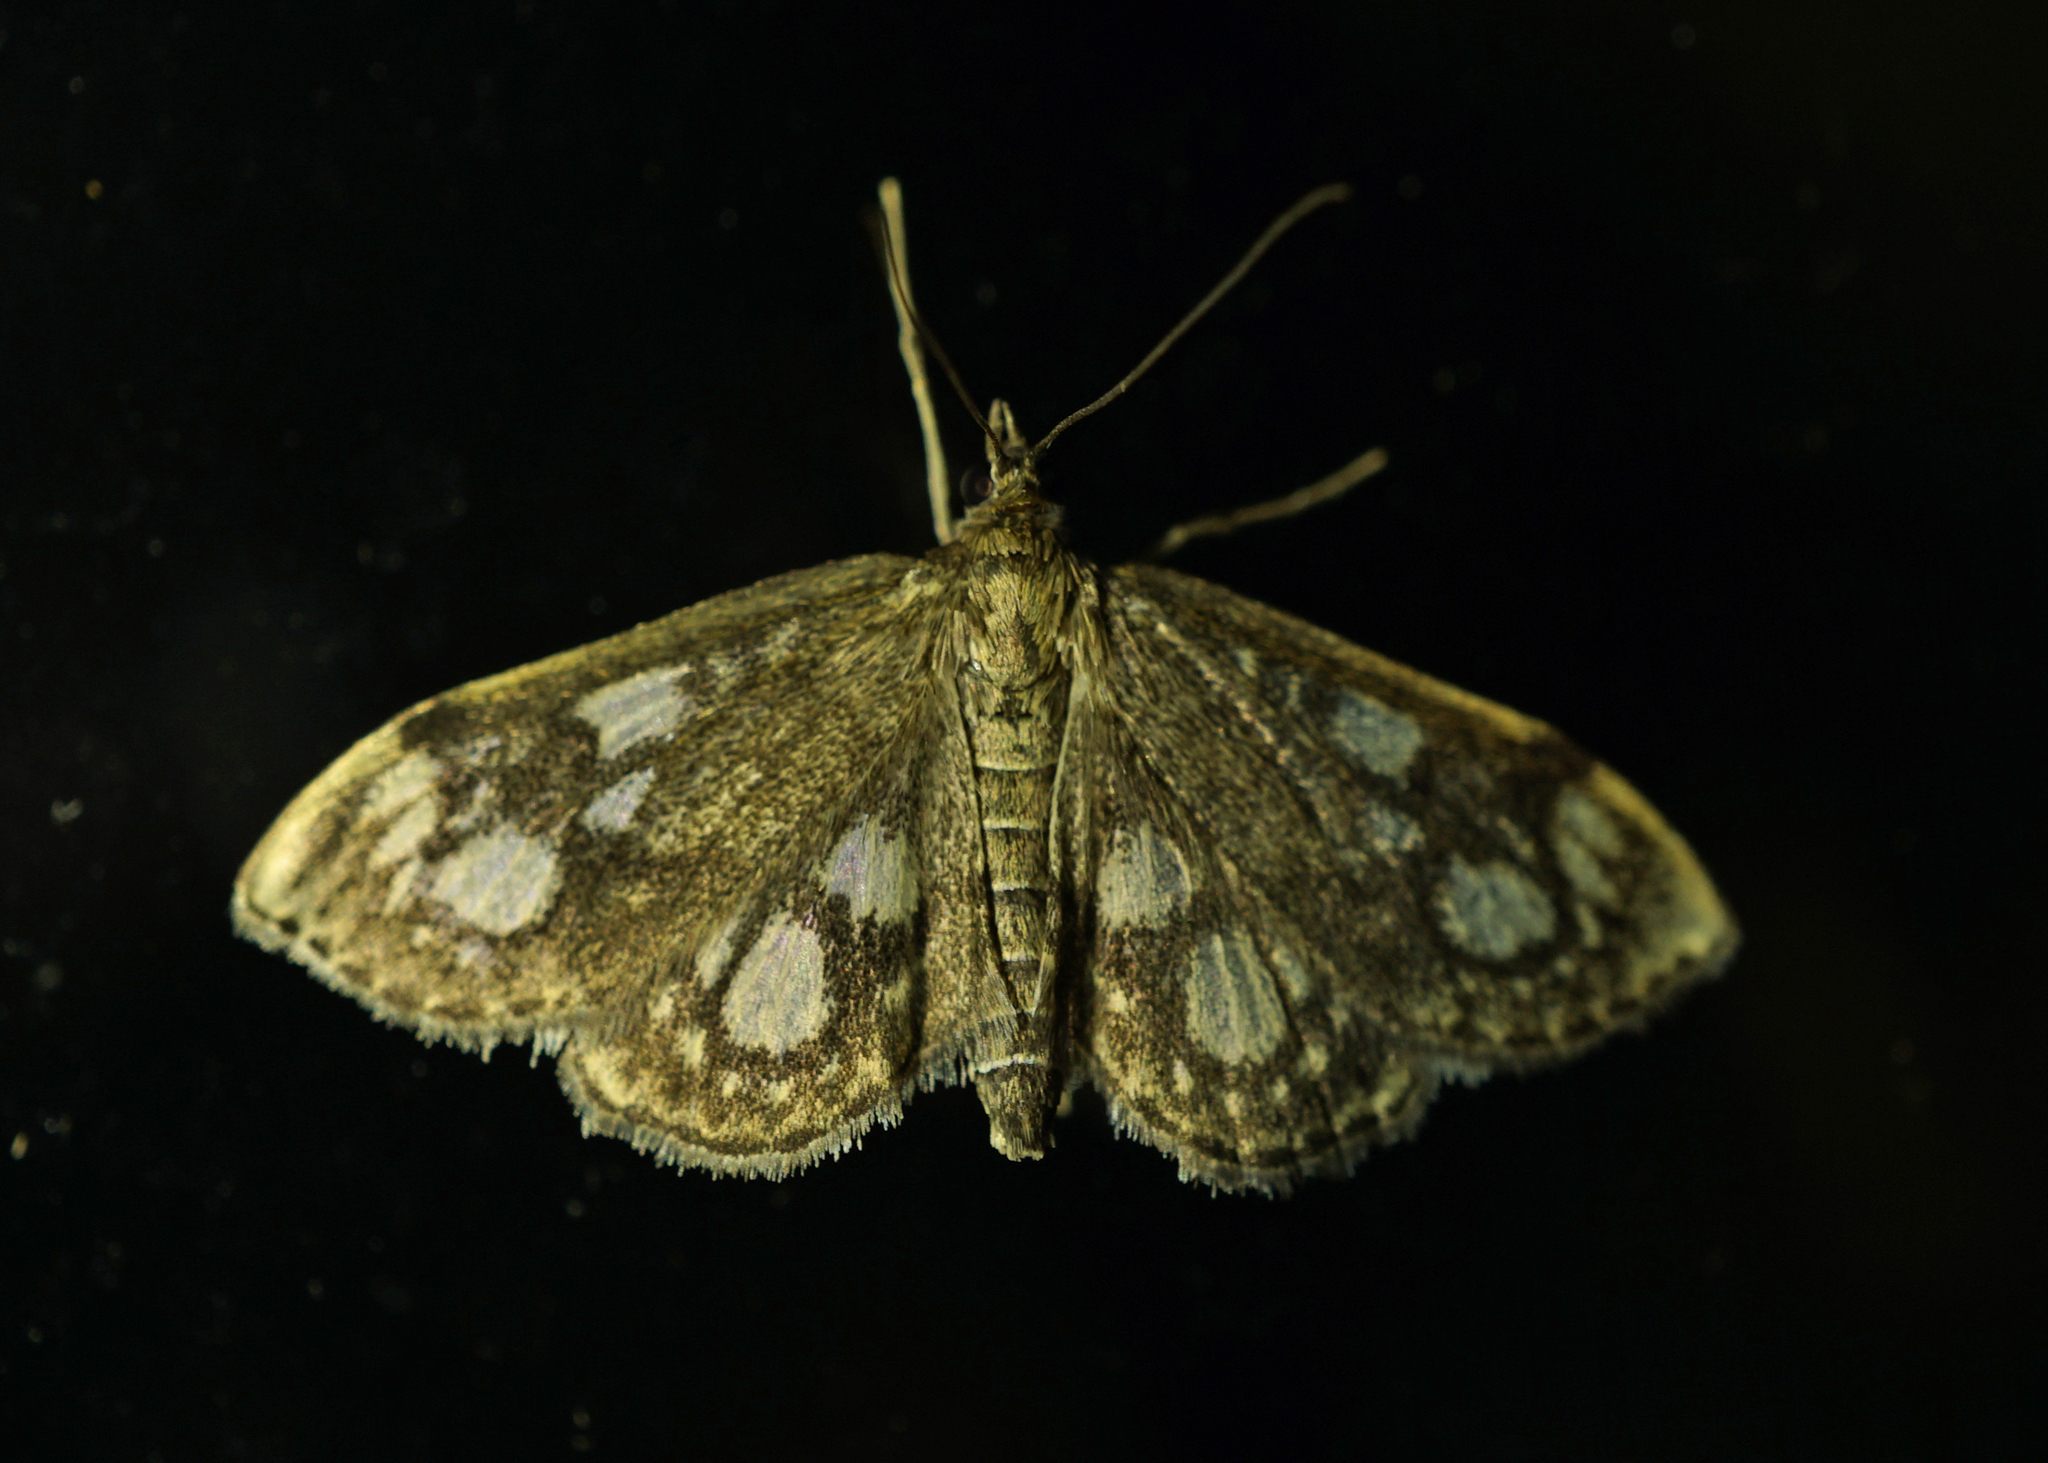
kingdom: Animalia
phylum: Arthropoda
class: Insecta
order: Lepidoptera
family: Crambidae
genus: Anania
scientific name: Anania coronata
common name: Elder pearl
